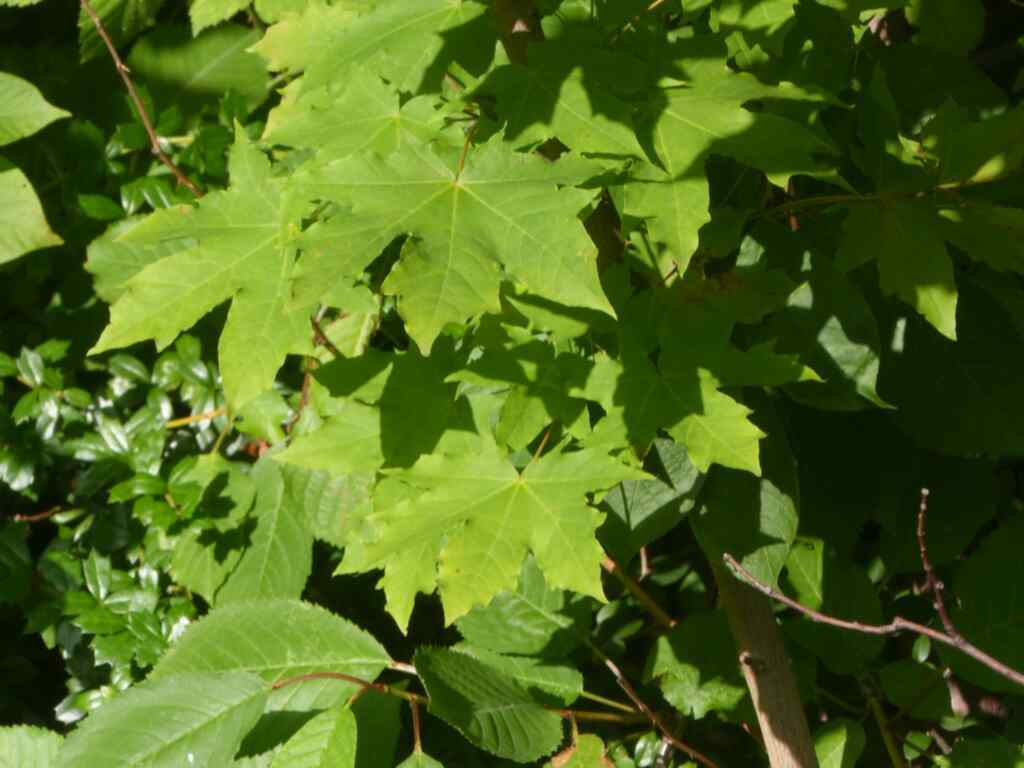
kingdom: Plantae
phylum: Tracheophyta
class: Magnoliopsida
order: Sapindales
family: Sapindaceae
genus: Acer
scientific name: Acer platanoides
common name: Norway maple
